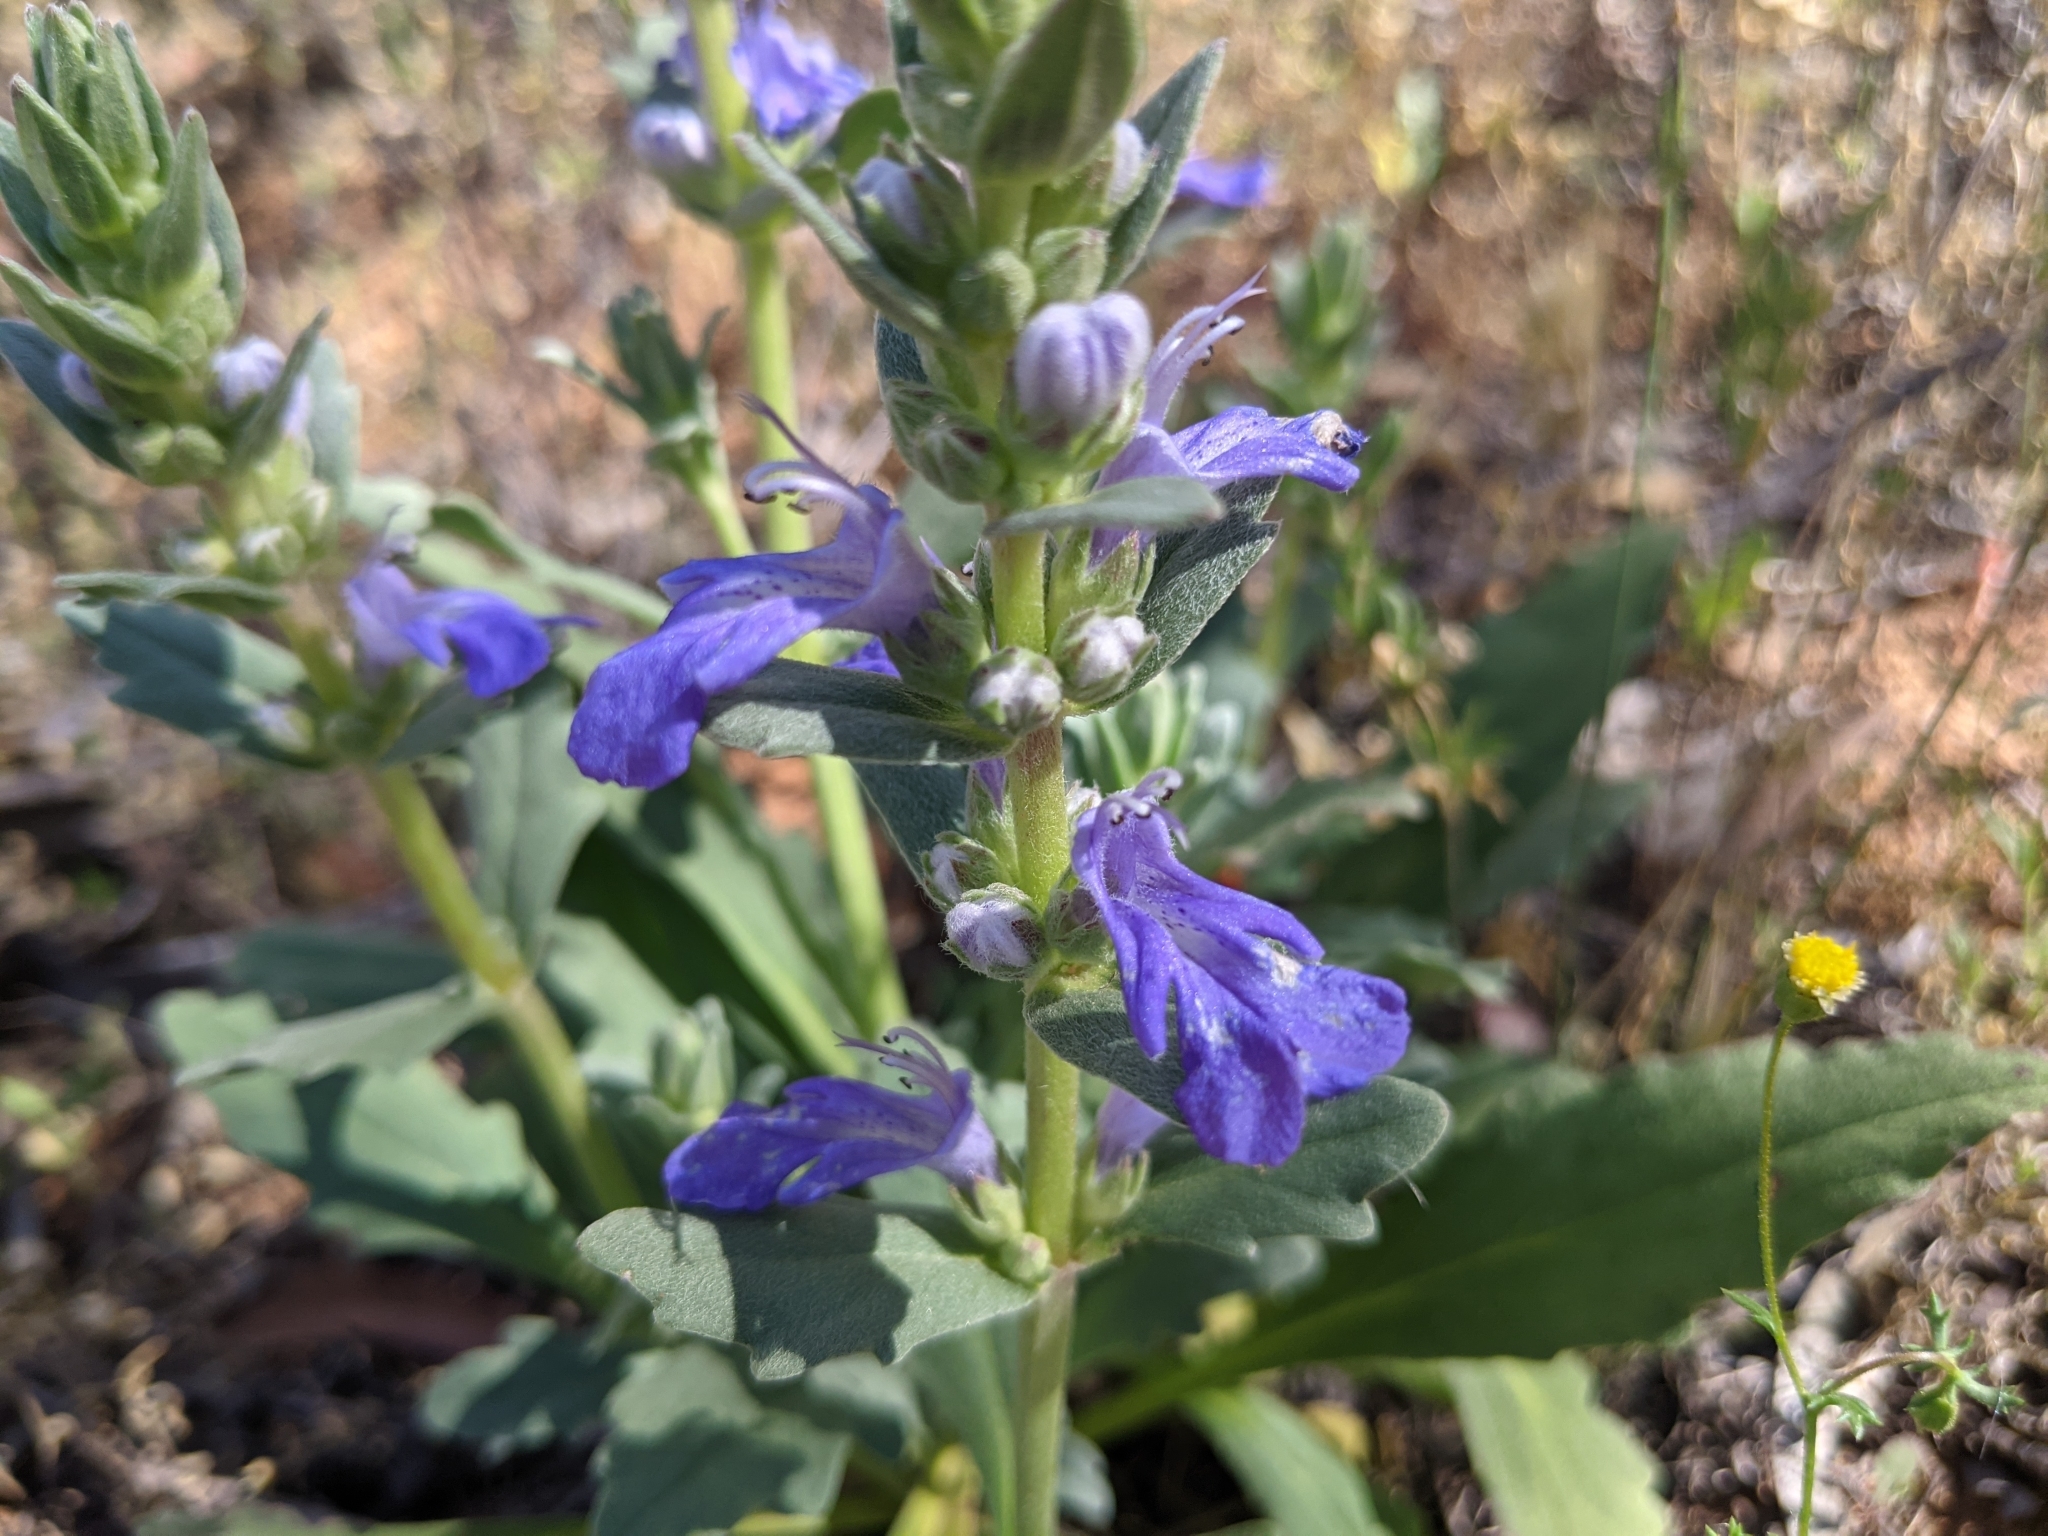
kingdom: Plantae
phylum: Tracheophyta
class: Magnoliopsida
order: Lamiales
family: Lamiaceae
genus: Ajuga
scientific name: Ajuga australis
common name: Australian bugle
